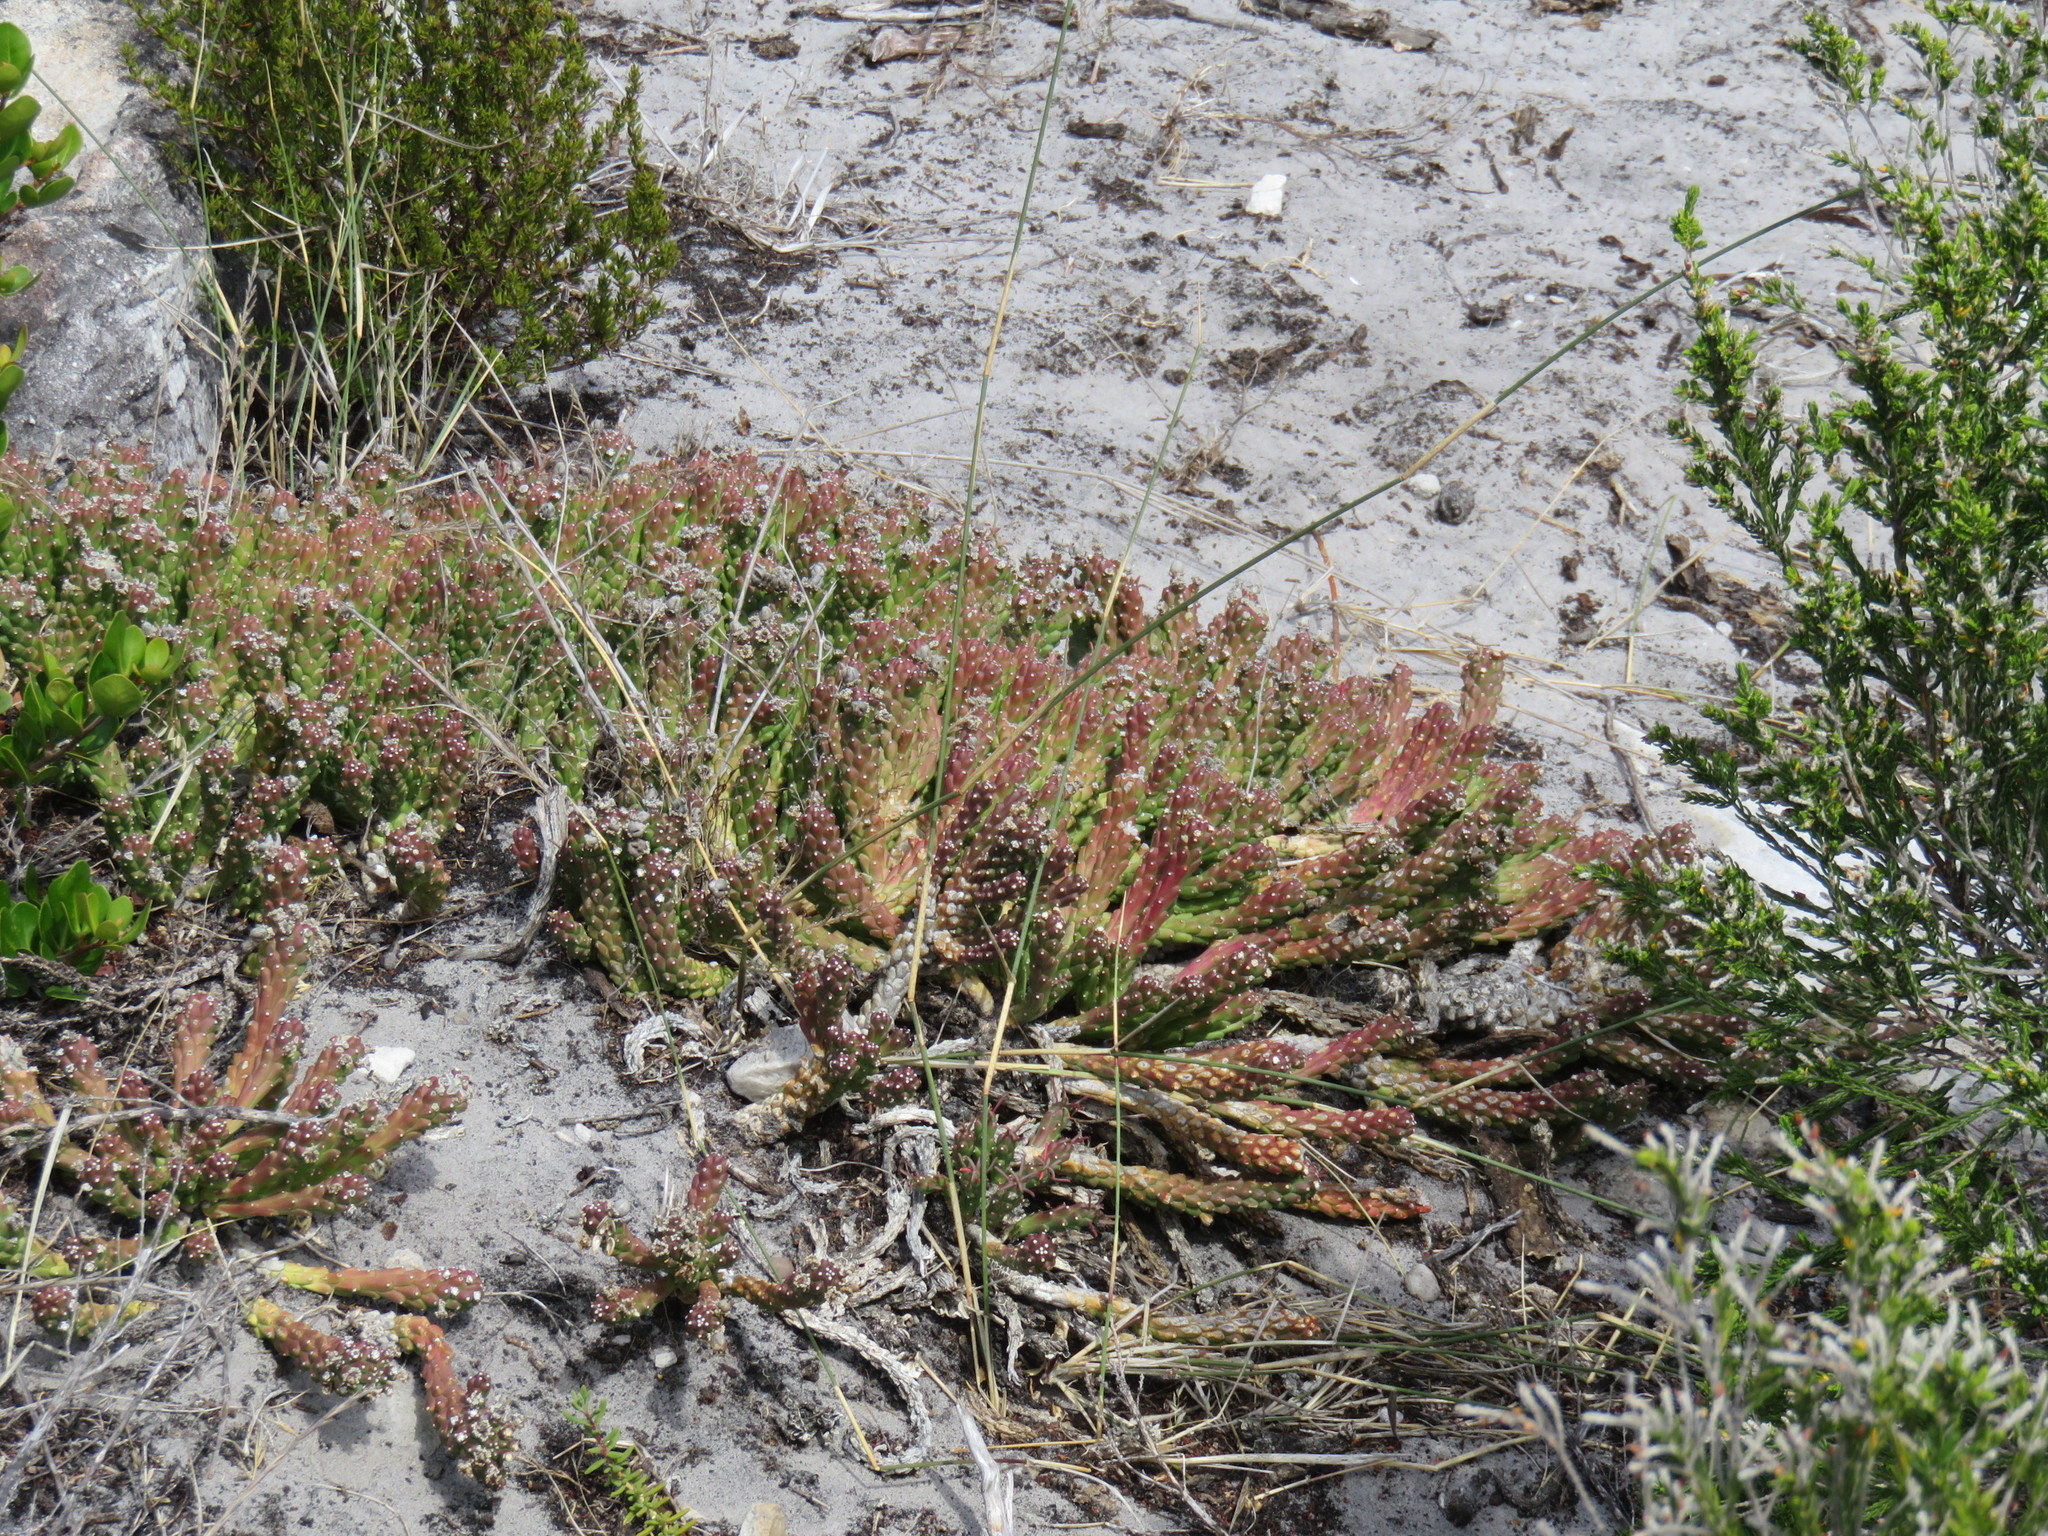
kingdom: Plantae
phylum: Tracheophyta
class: Magnoliopsida
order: Malpighiales
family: Euphorbiaceae
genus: Euphorbia
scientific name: Euphorbia caput-medusae
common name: Medusa's-head
